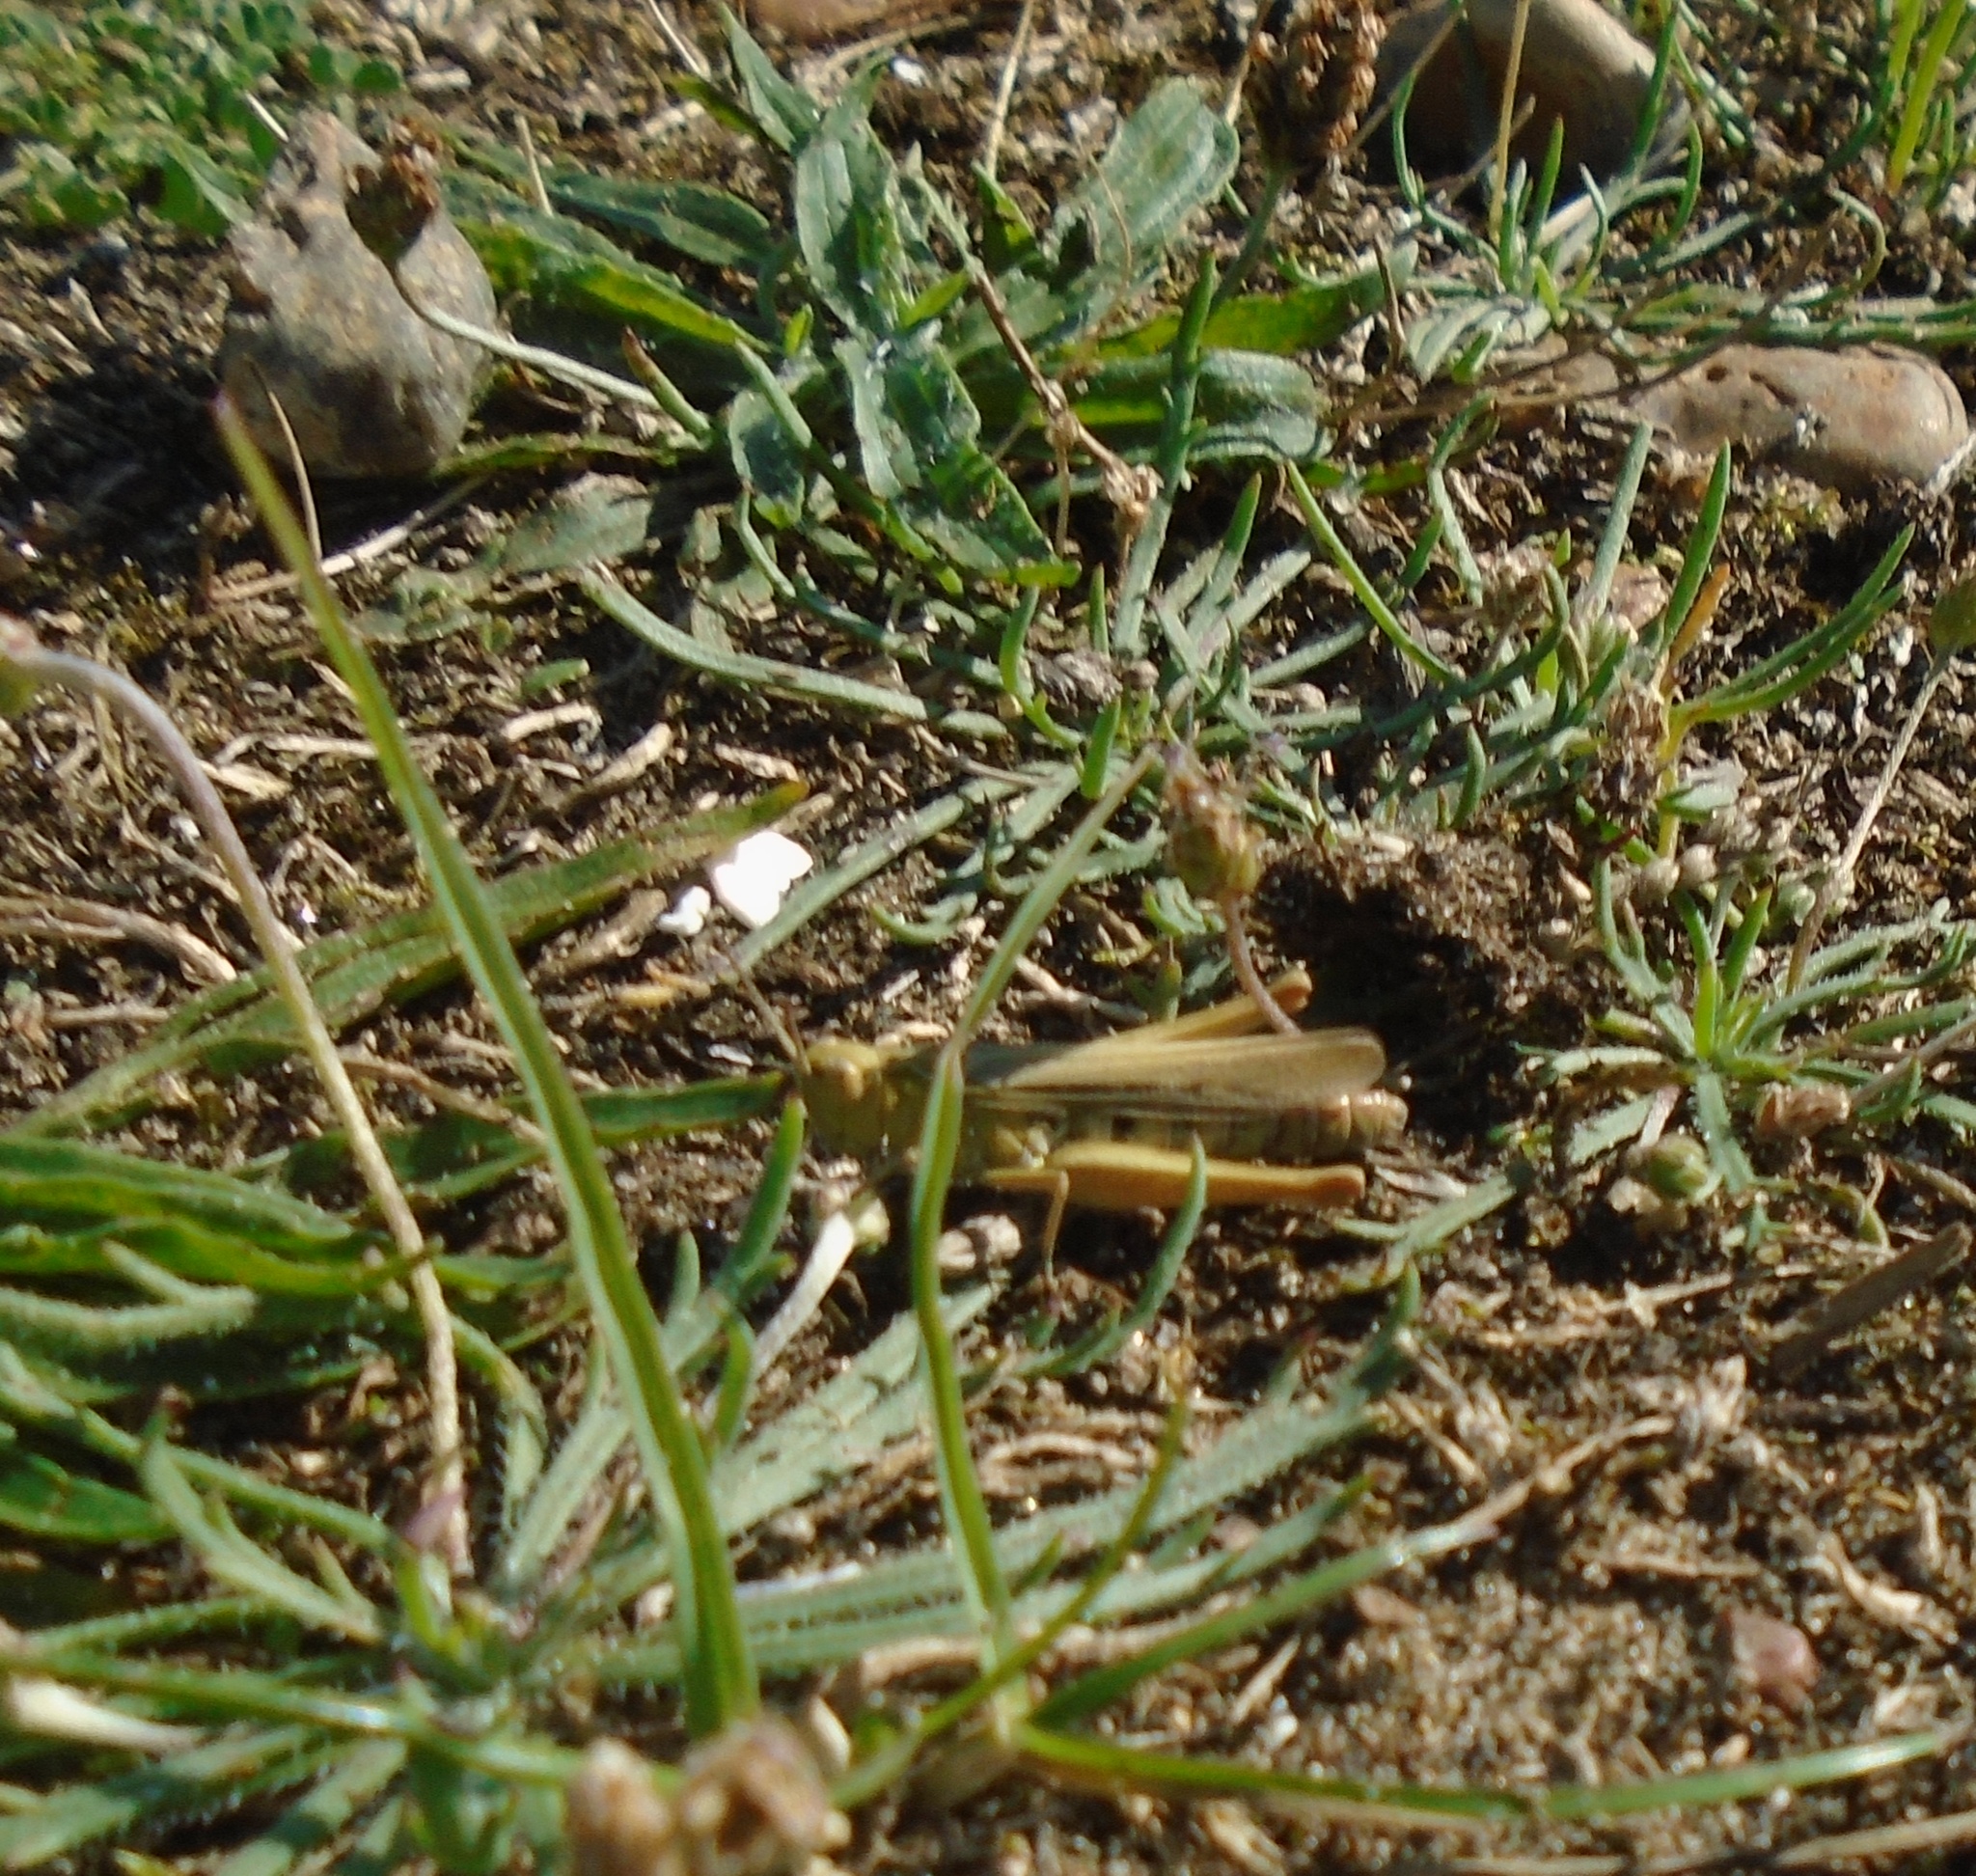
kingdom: Animalia
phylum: Arthropoda
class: Insecta
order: Orthoptera
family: Acrididae
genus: Chorthippus
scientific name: Chorthippus brunneus
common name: Field grasshopper
